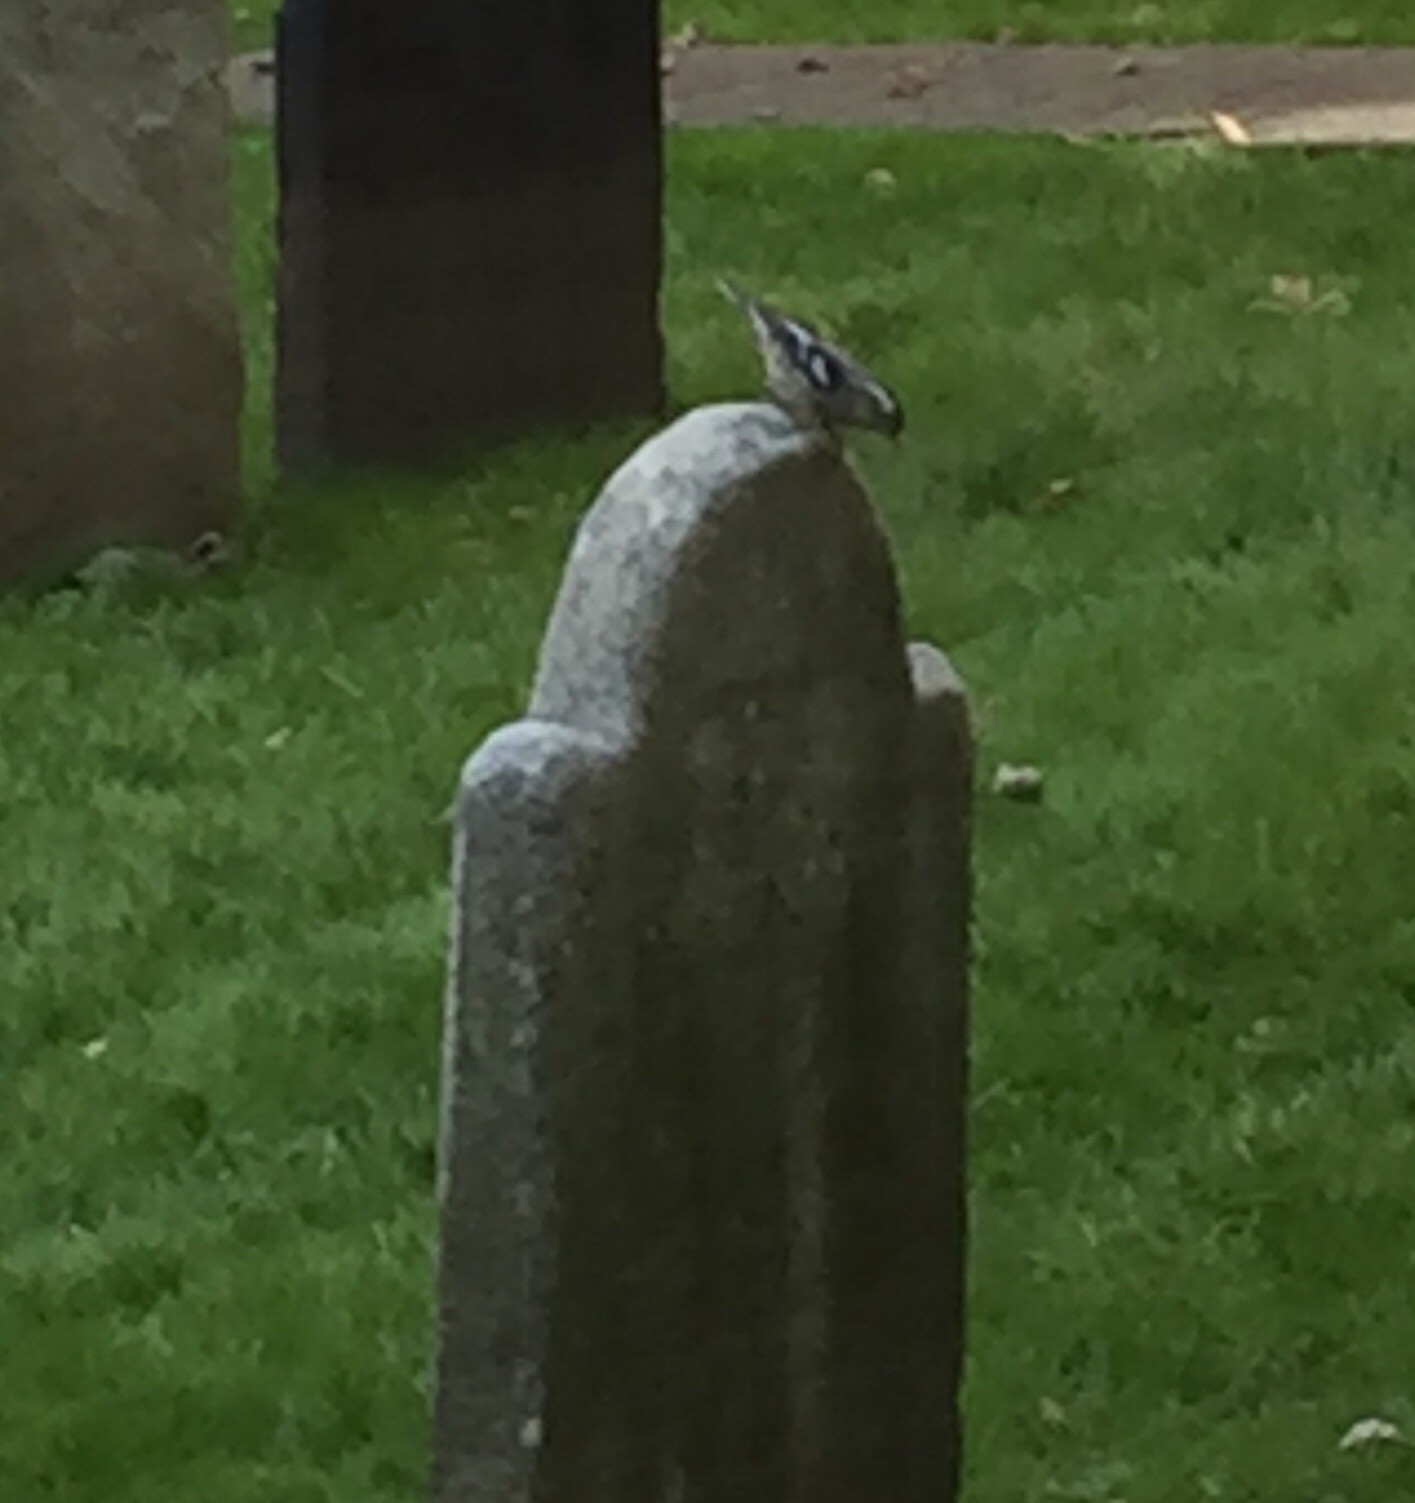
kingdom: Animalia
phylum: Chordata
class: Aves
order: Passeriformes
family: Parulidae
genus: Mniotilta
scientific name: Mniotilta varia
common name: Black-and-white warbler
